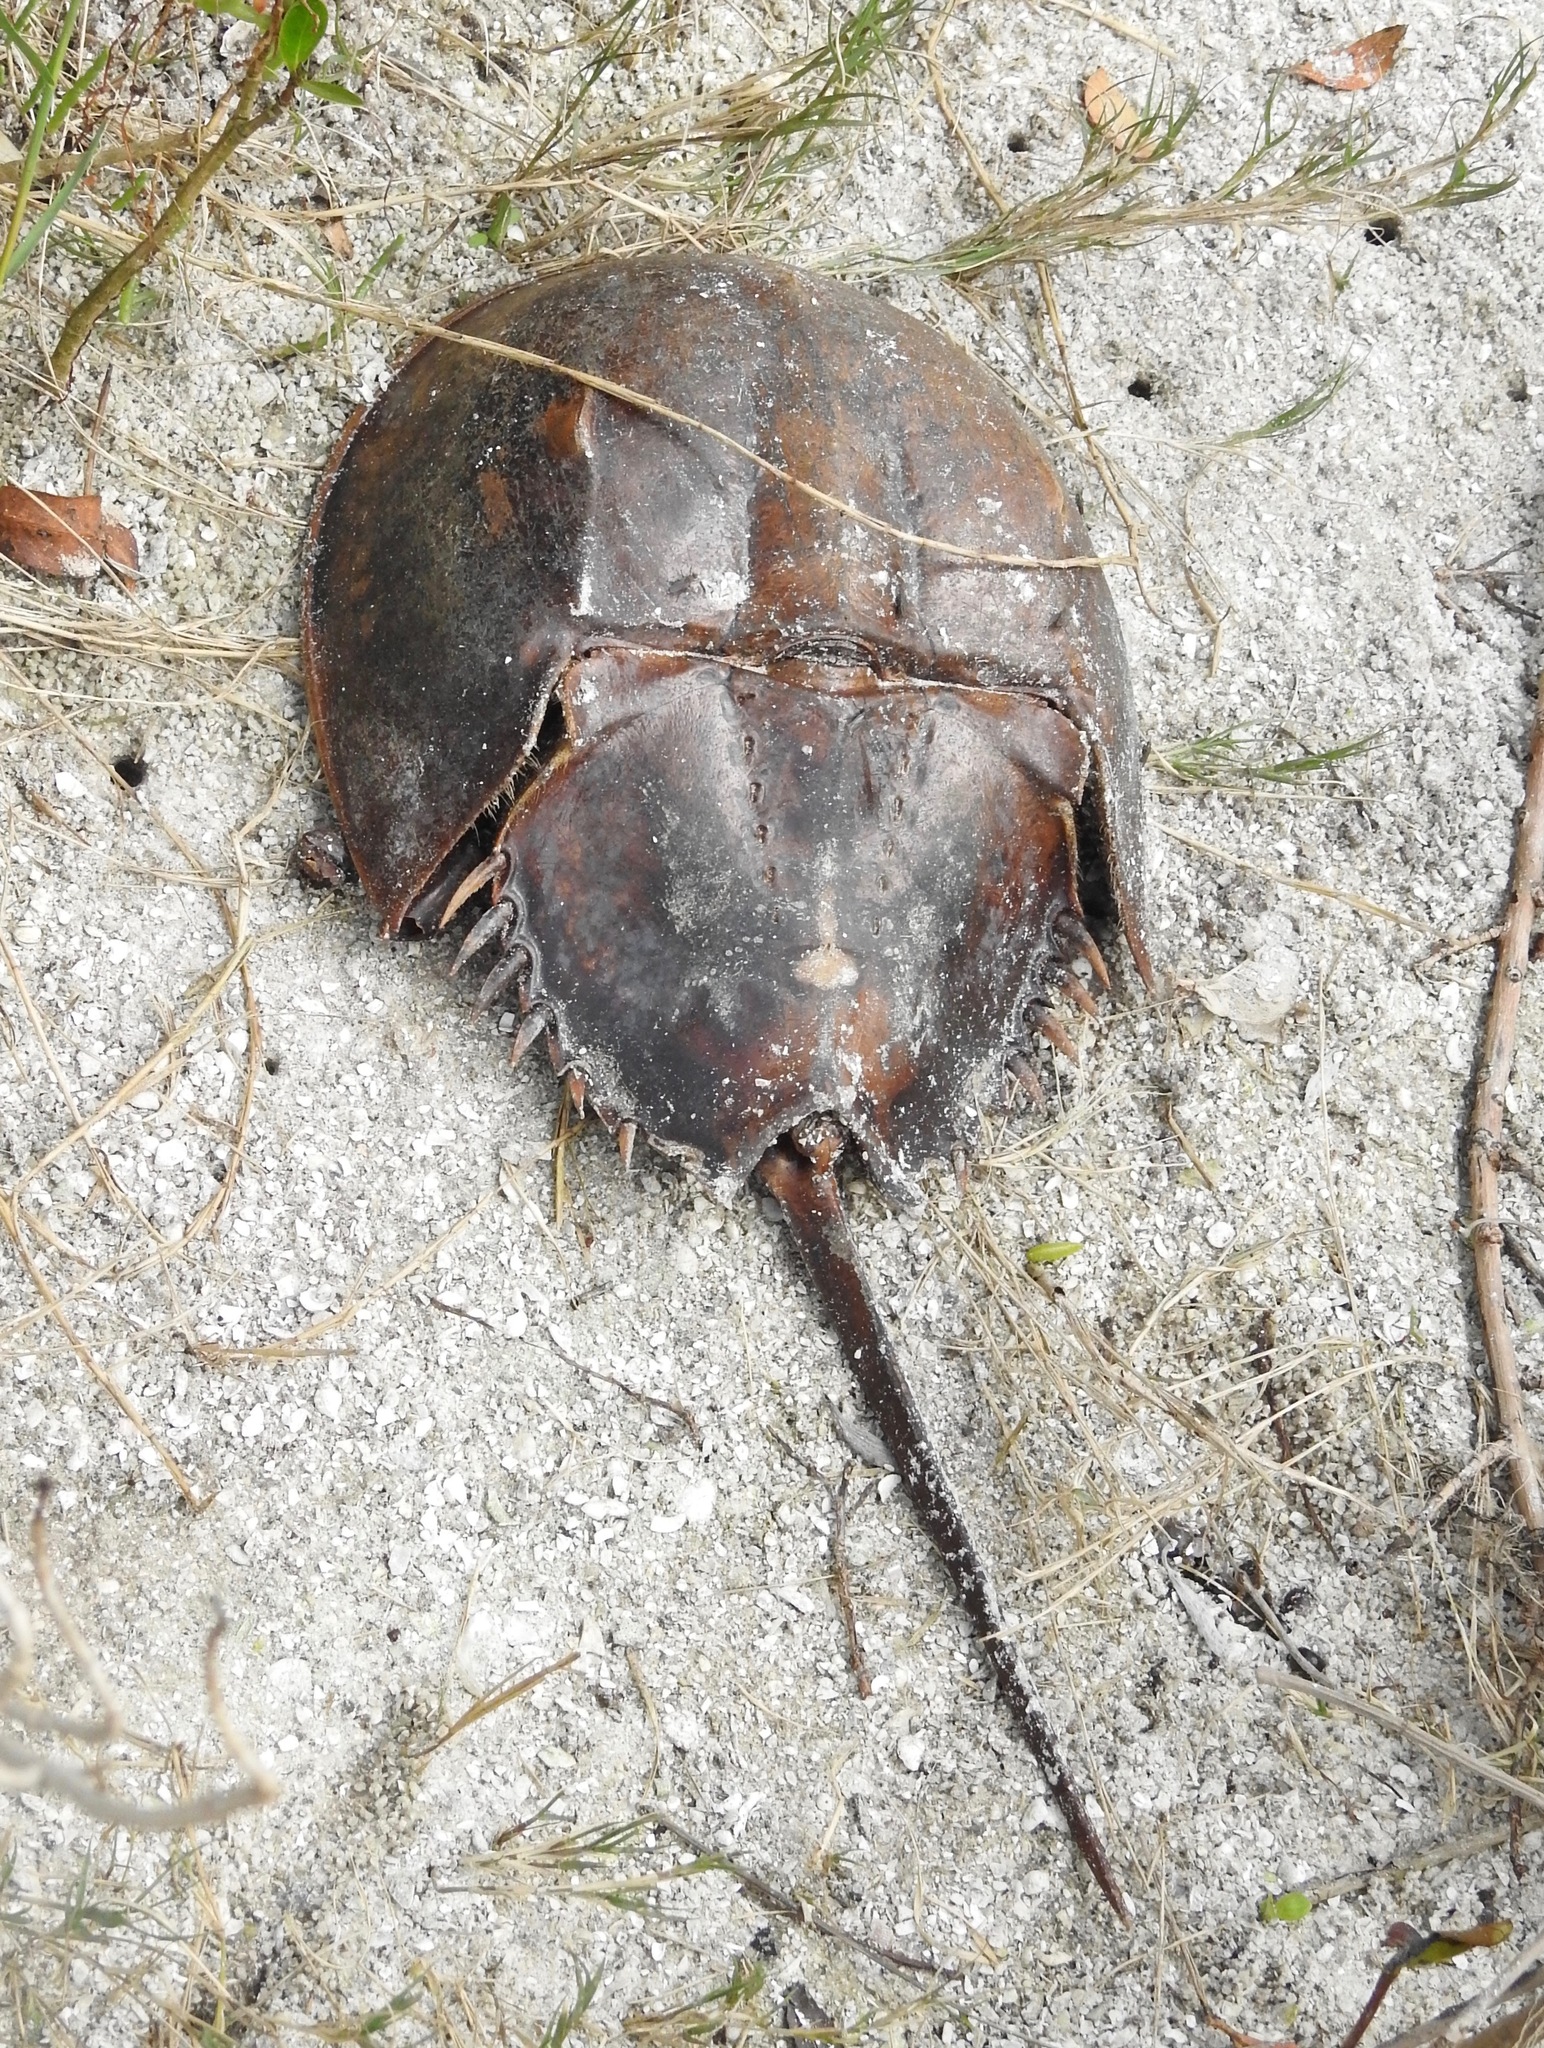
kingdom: Animalia
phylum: Arthropoda
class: Merostomata
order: Xiphosurida
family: Limulidae
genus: Limulus
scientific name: Limulus polyphemus
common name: Horseshoe crab
